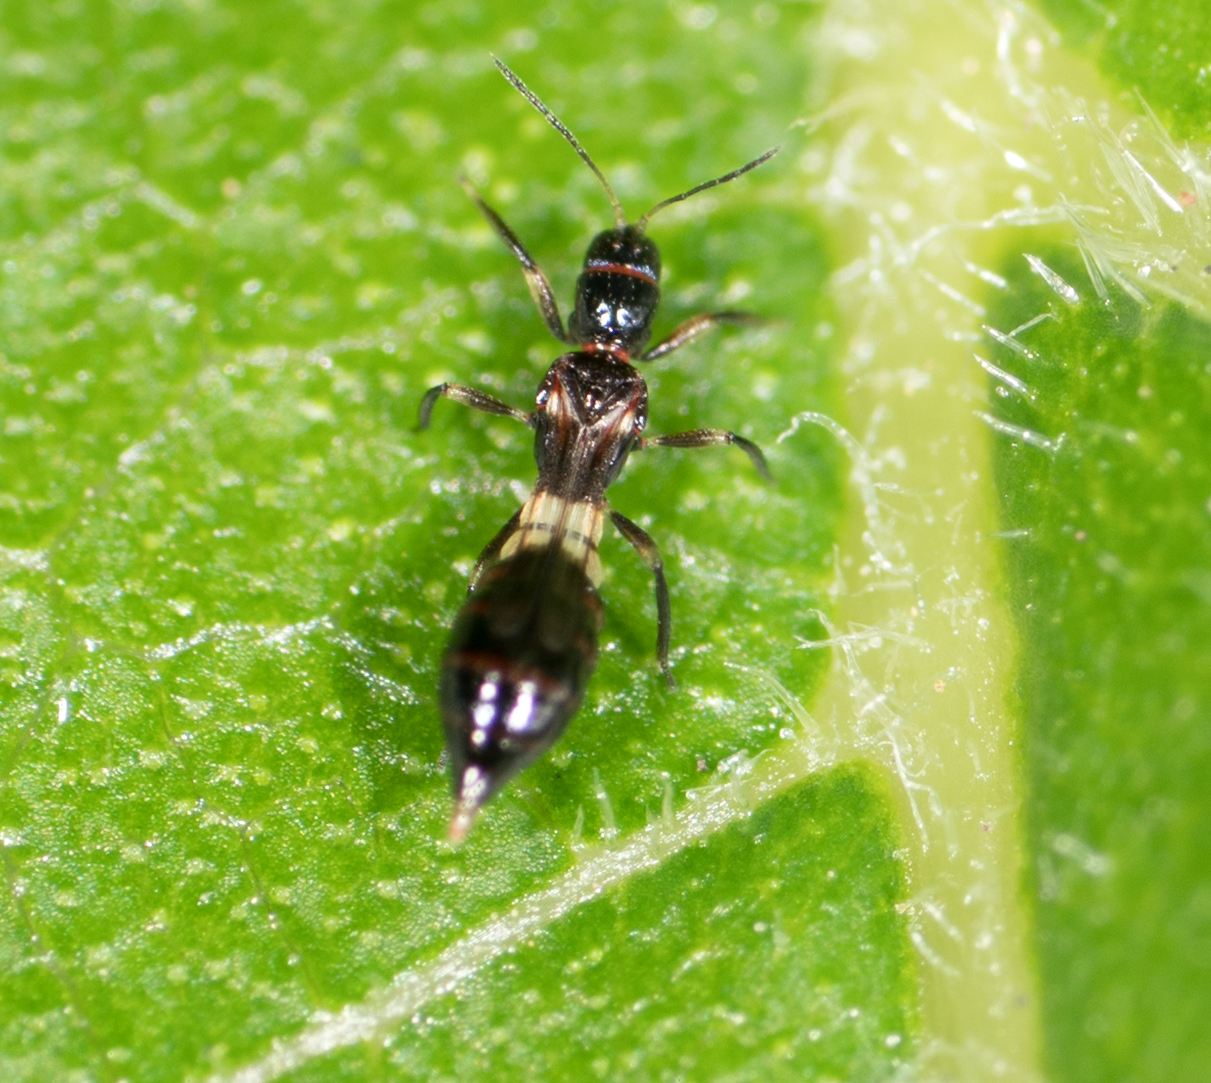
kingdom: Animalia
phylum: Arthropoda
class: Insecta
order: Thysanoptera
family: Aeolothripidae
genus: Franklinothrips
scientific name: Franklinothrips vespiformis
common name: Banded thrip
